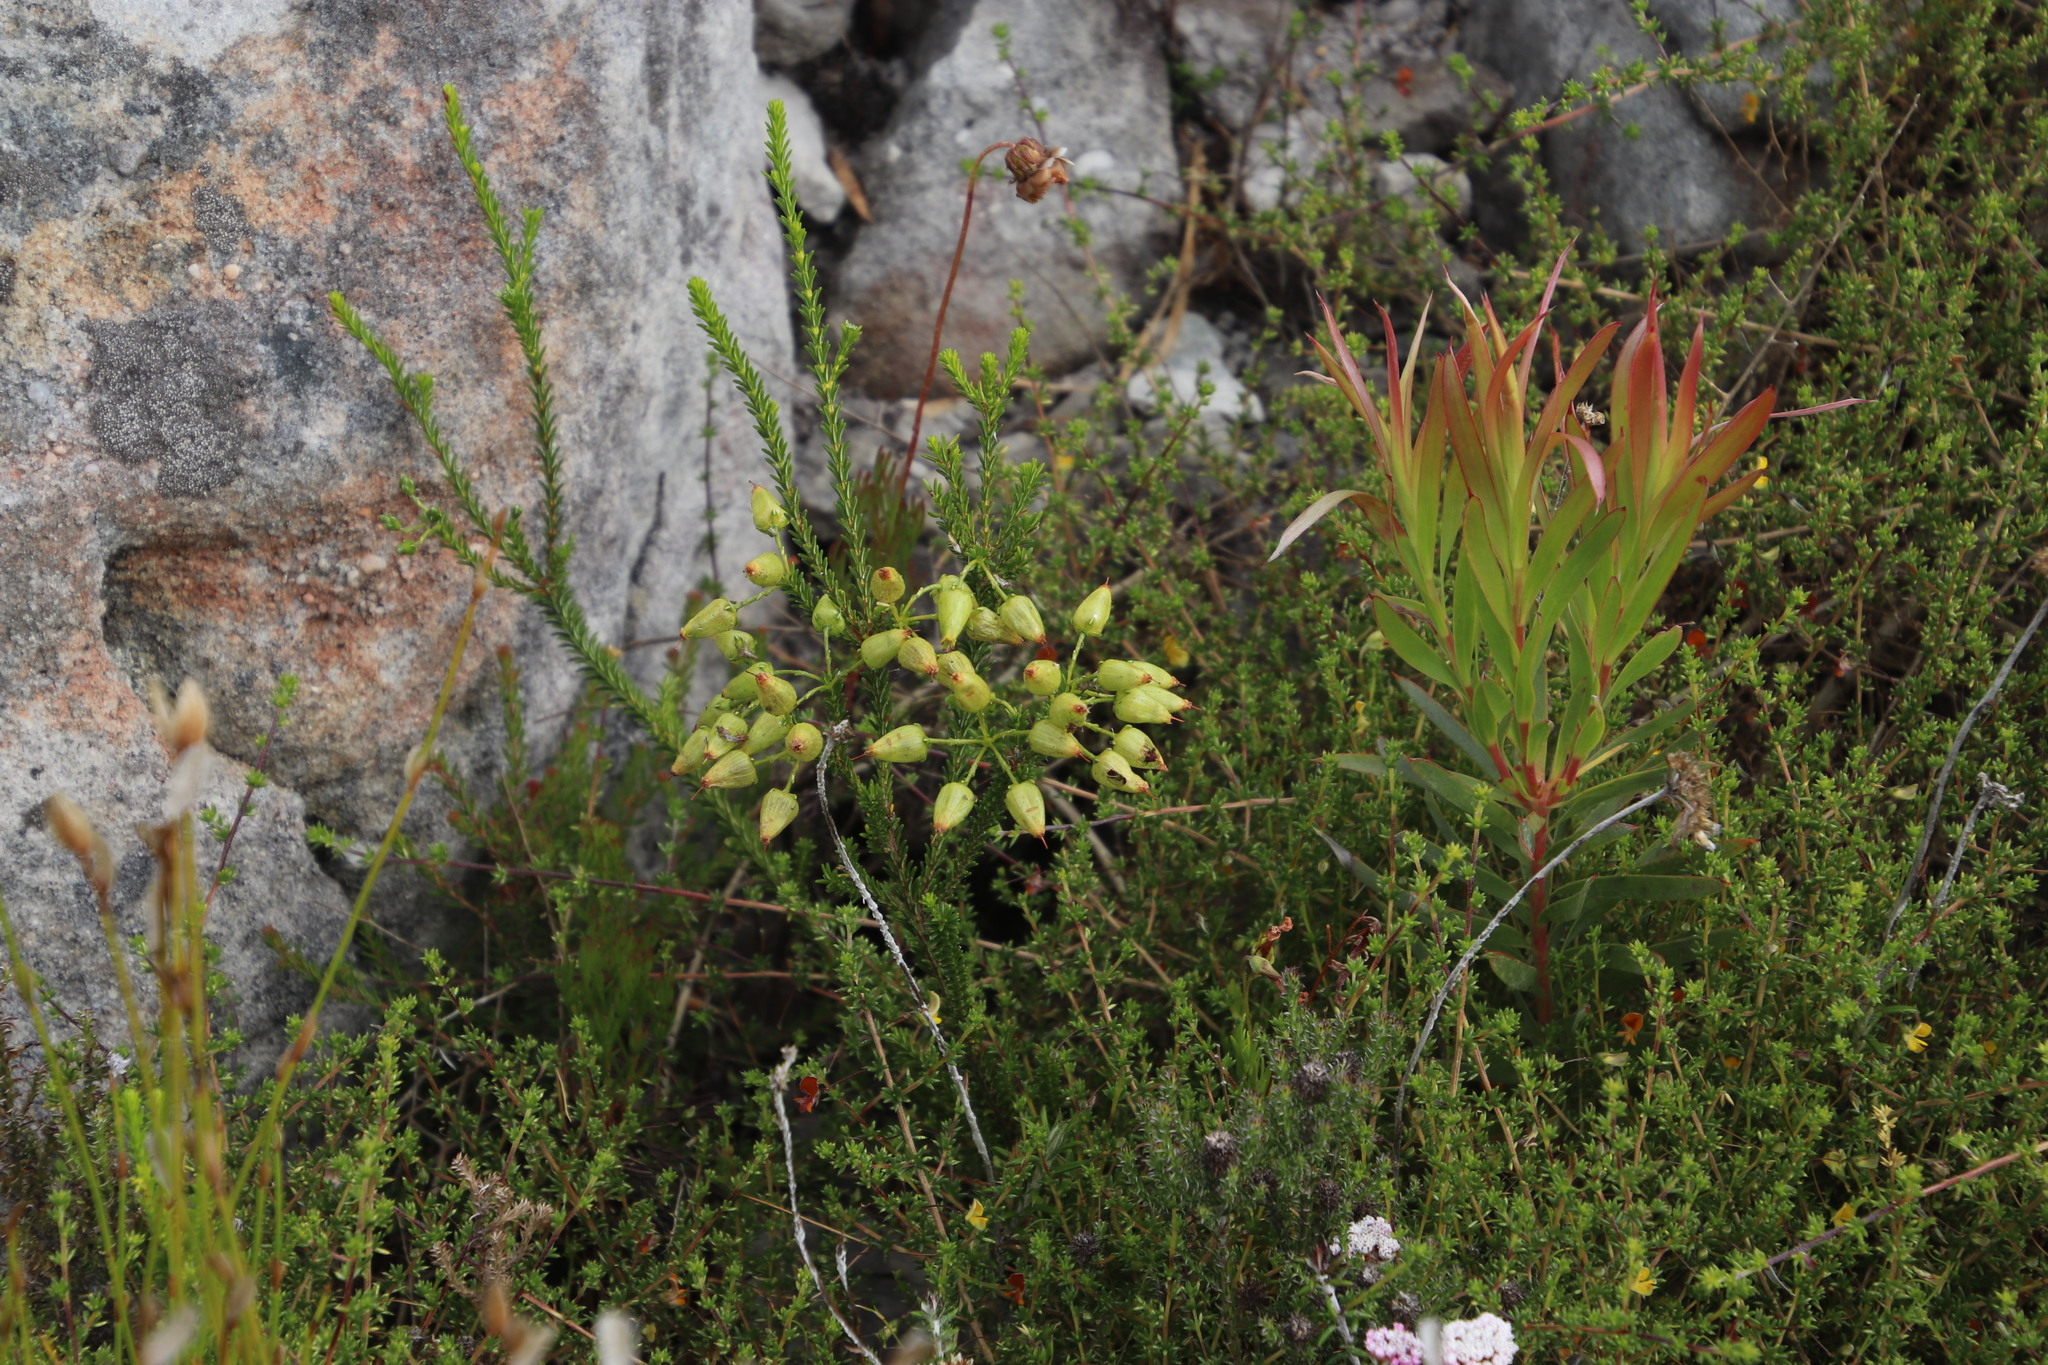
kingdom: Plantae
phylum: Tracheophyta
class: Magnoliopsida
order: Ericales
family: Ericaceae
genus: Erica
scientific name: Erica urna-viridis
